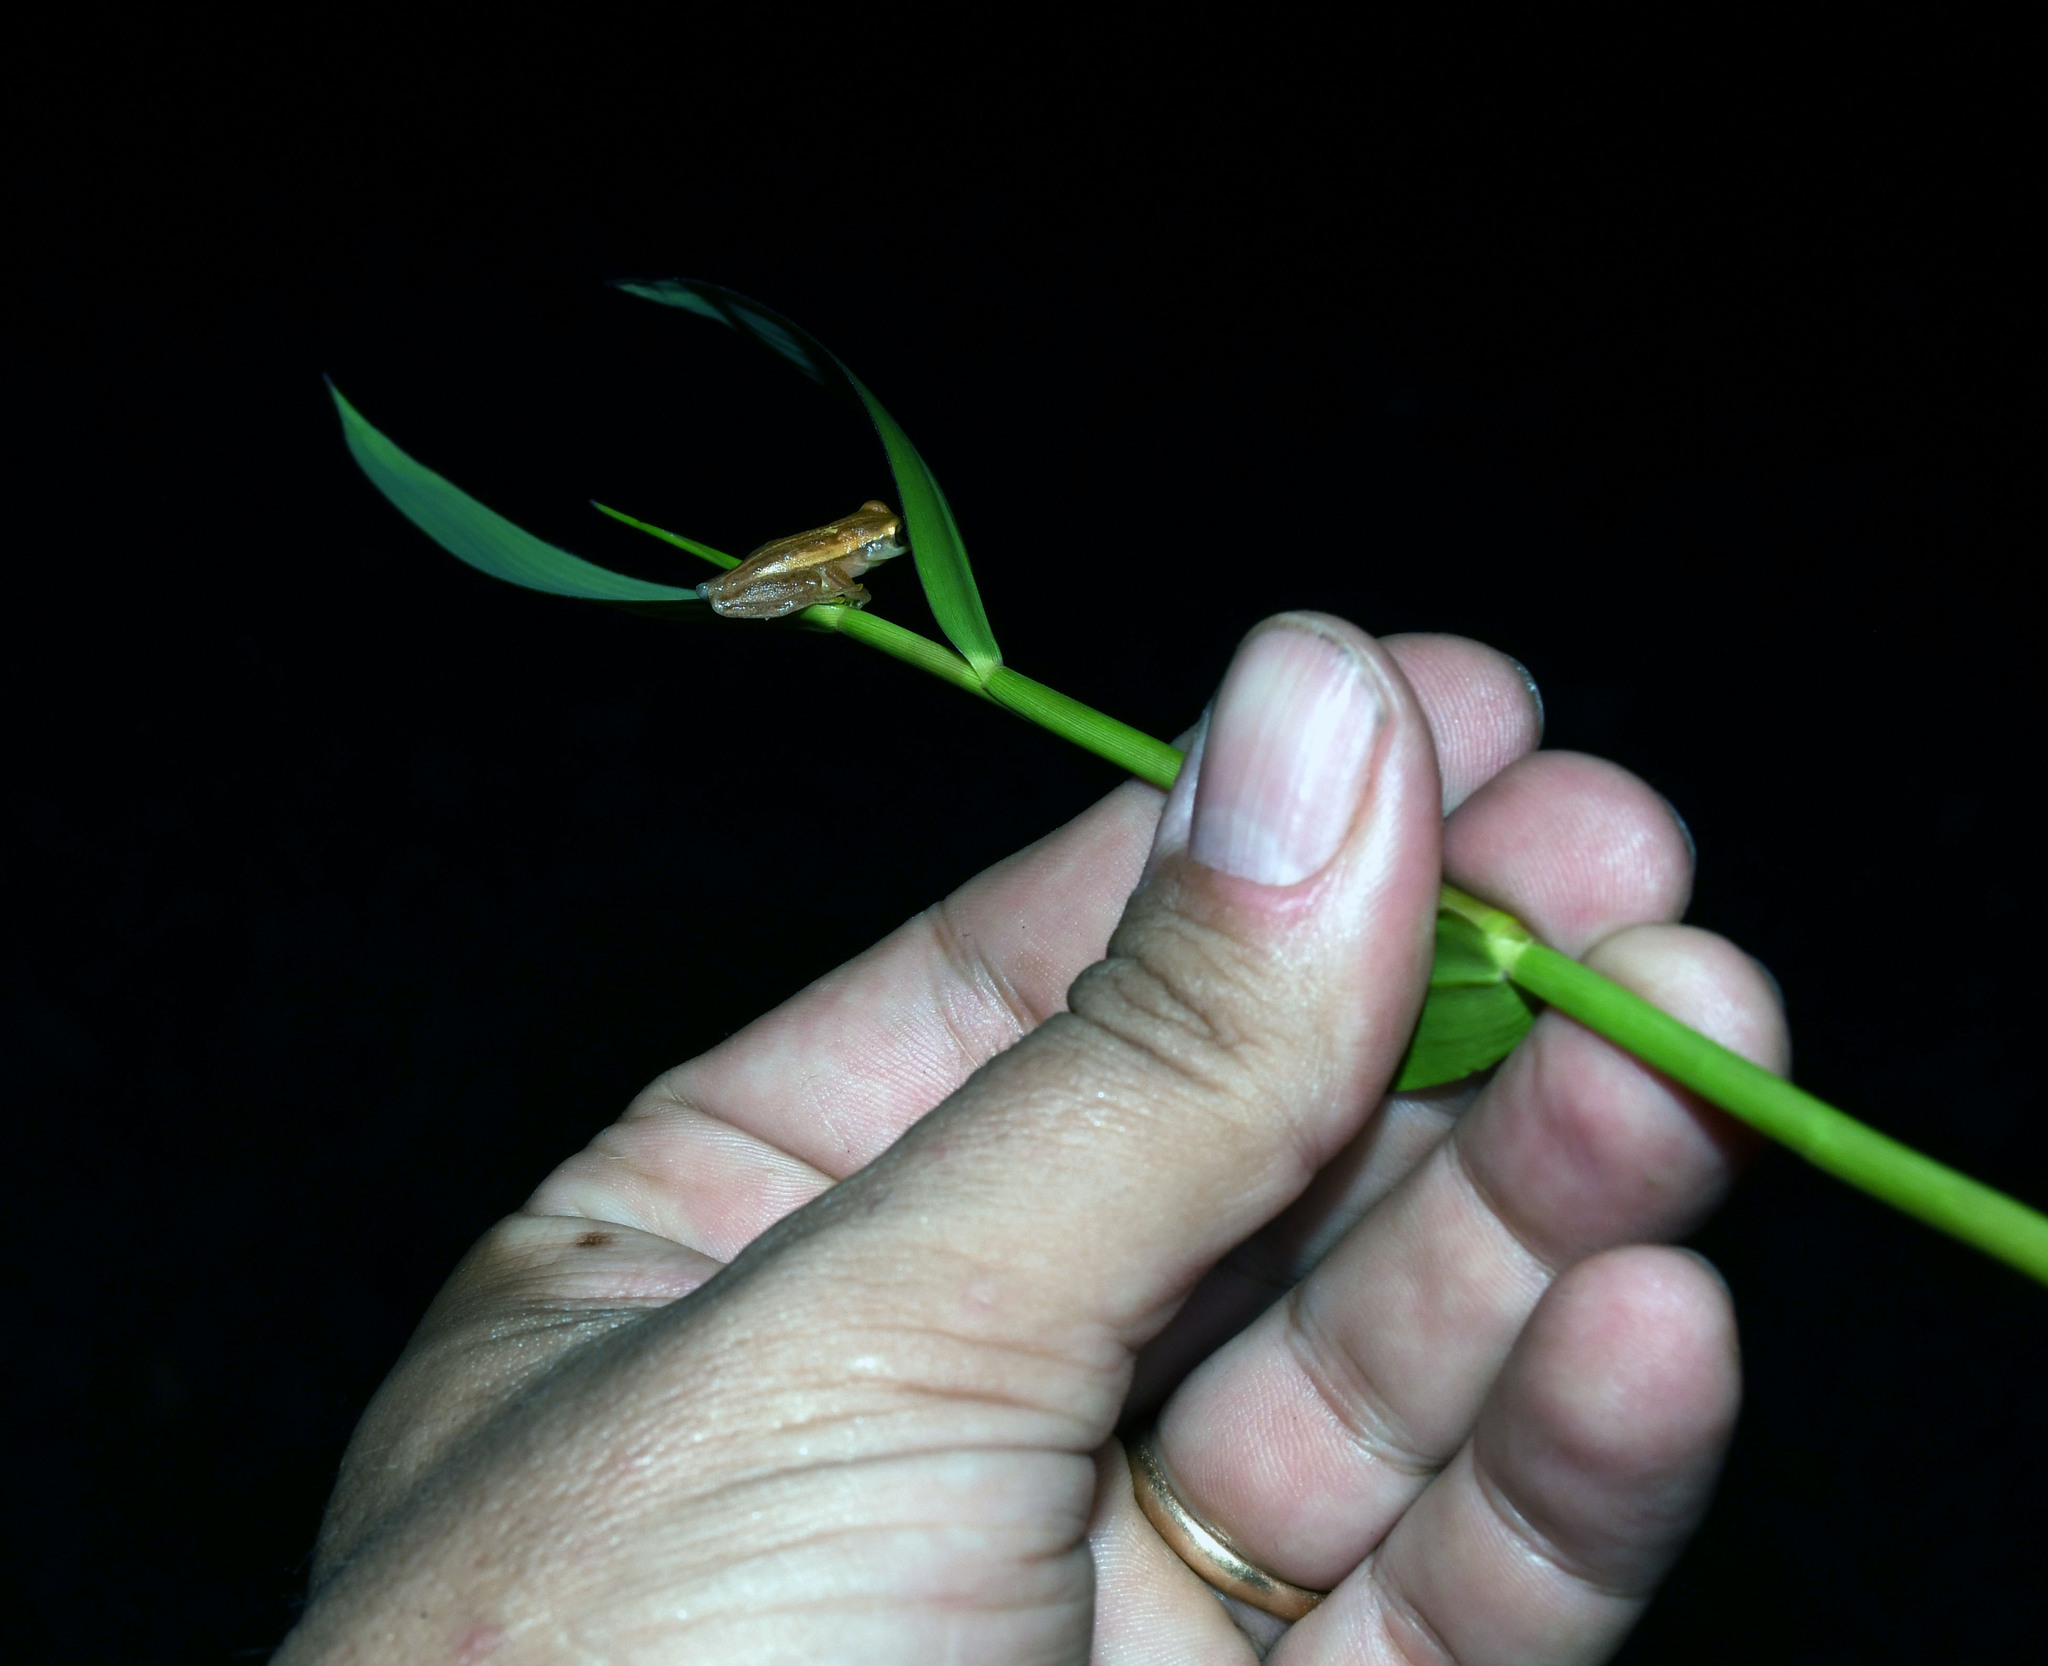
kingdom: Animalia
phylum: Chordata
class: Amphibia
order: Anura
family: Hylidae
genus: Dendropsophus
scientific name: Dendropsophus walfordi
